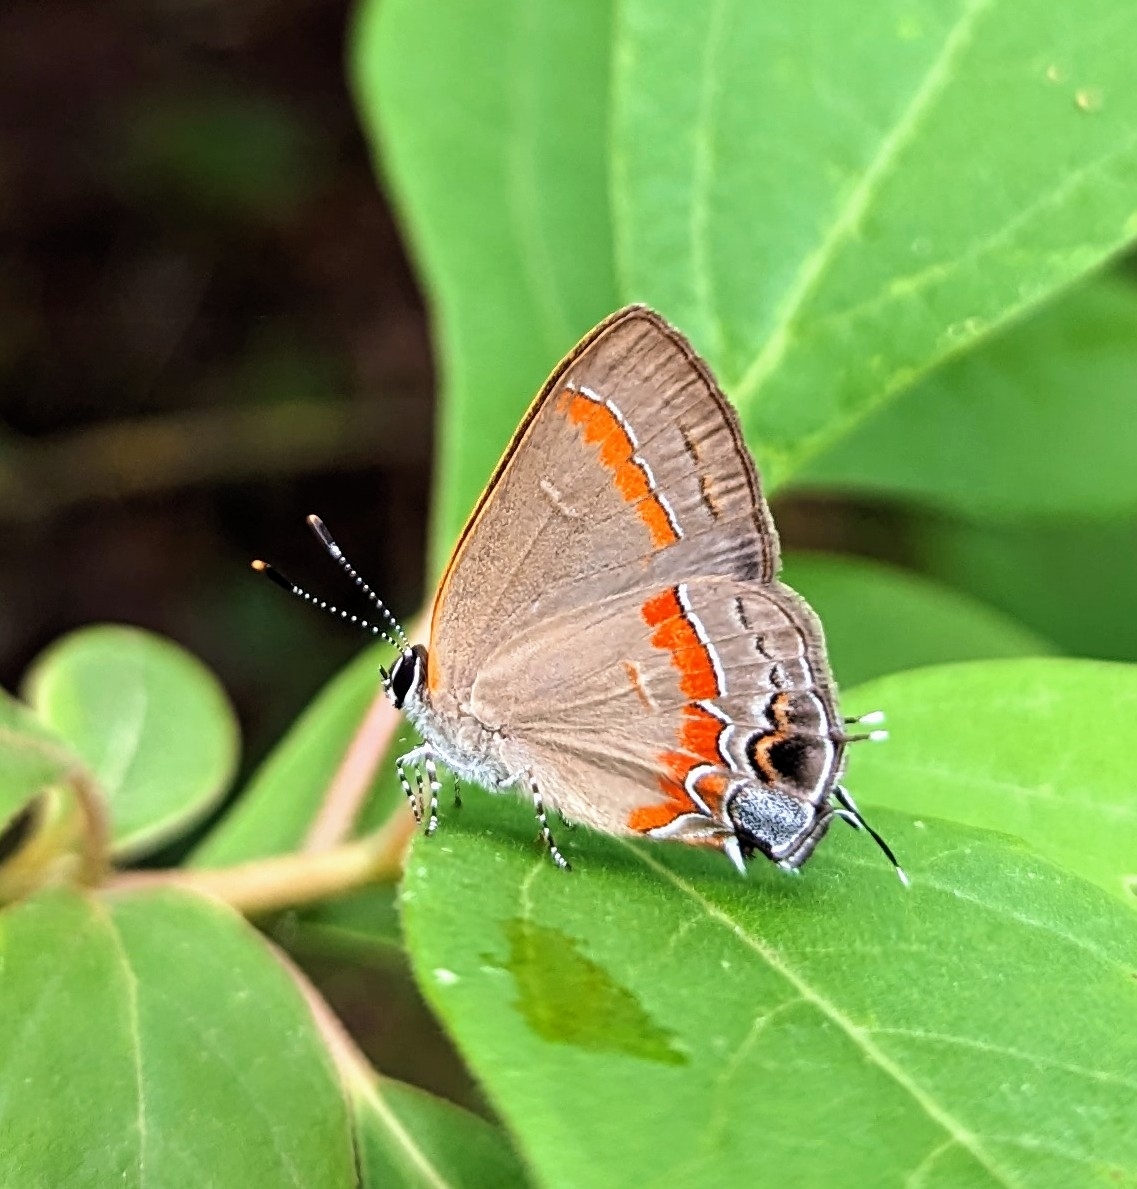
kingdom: Animalia
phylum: Arthropoda
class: Insecta
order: Lepidoptera
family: Lycaenidae
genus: Calycopis
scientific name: Calycopis cecrops
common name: Red-banded hairstreak
